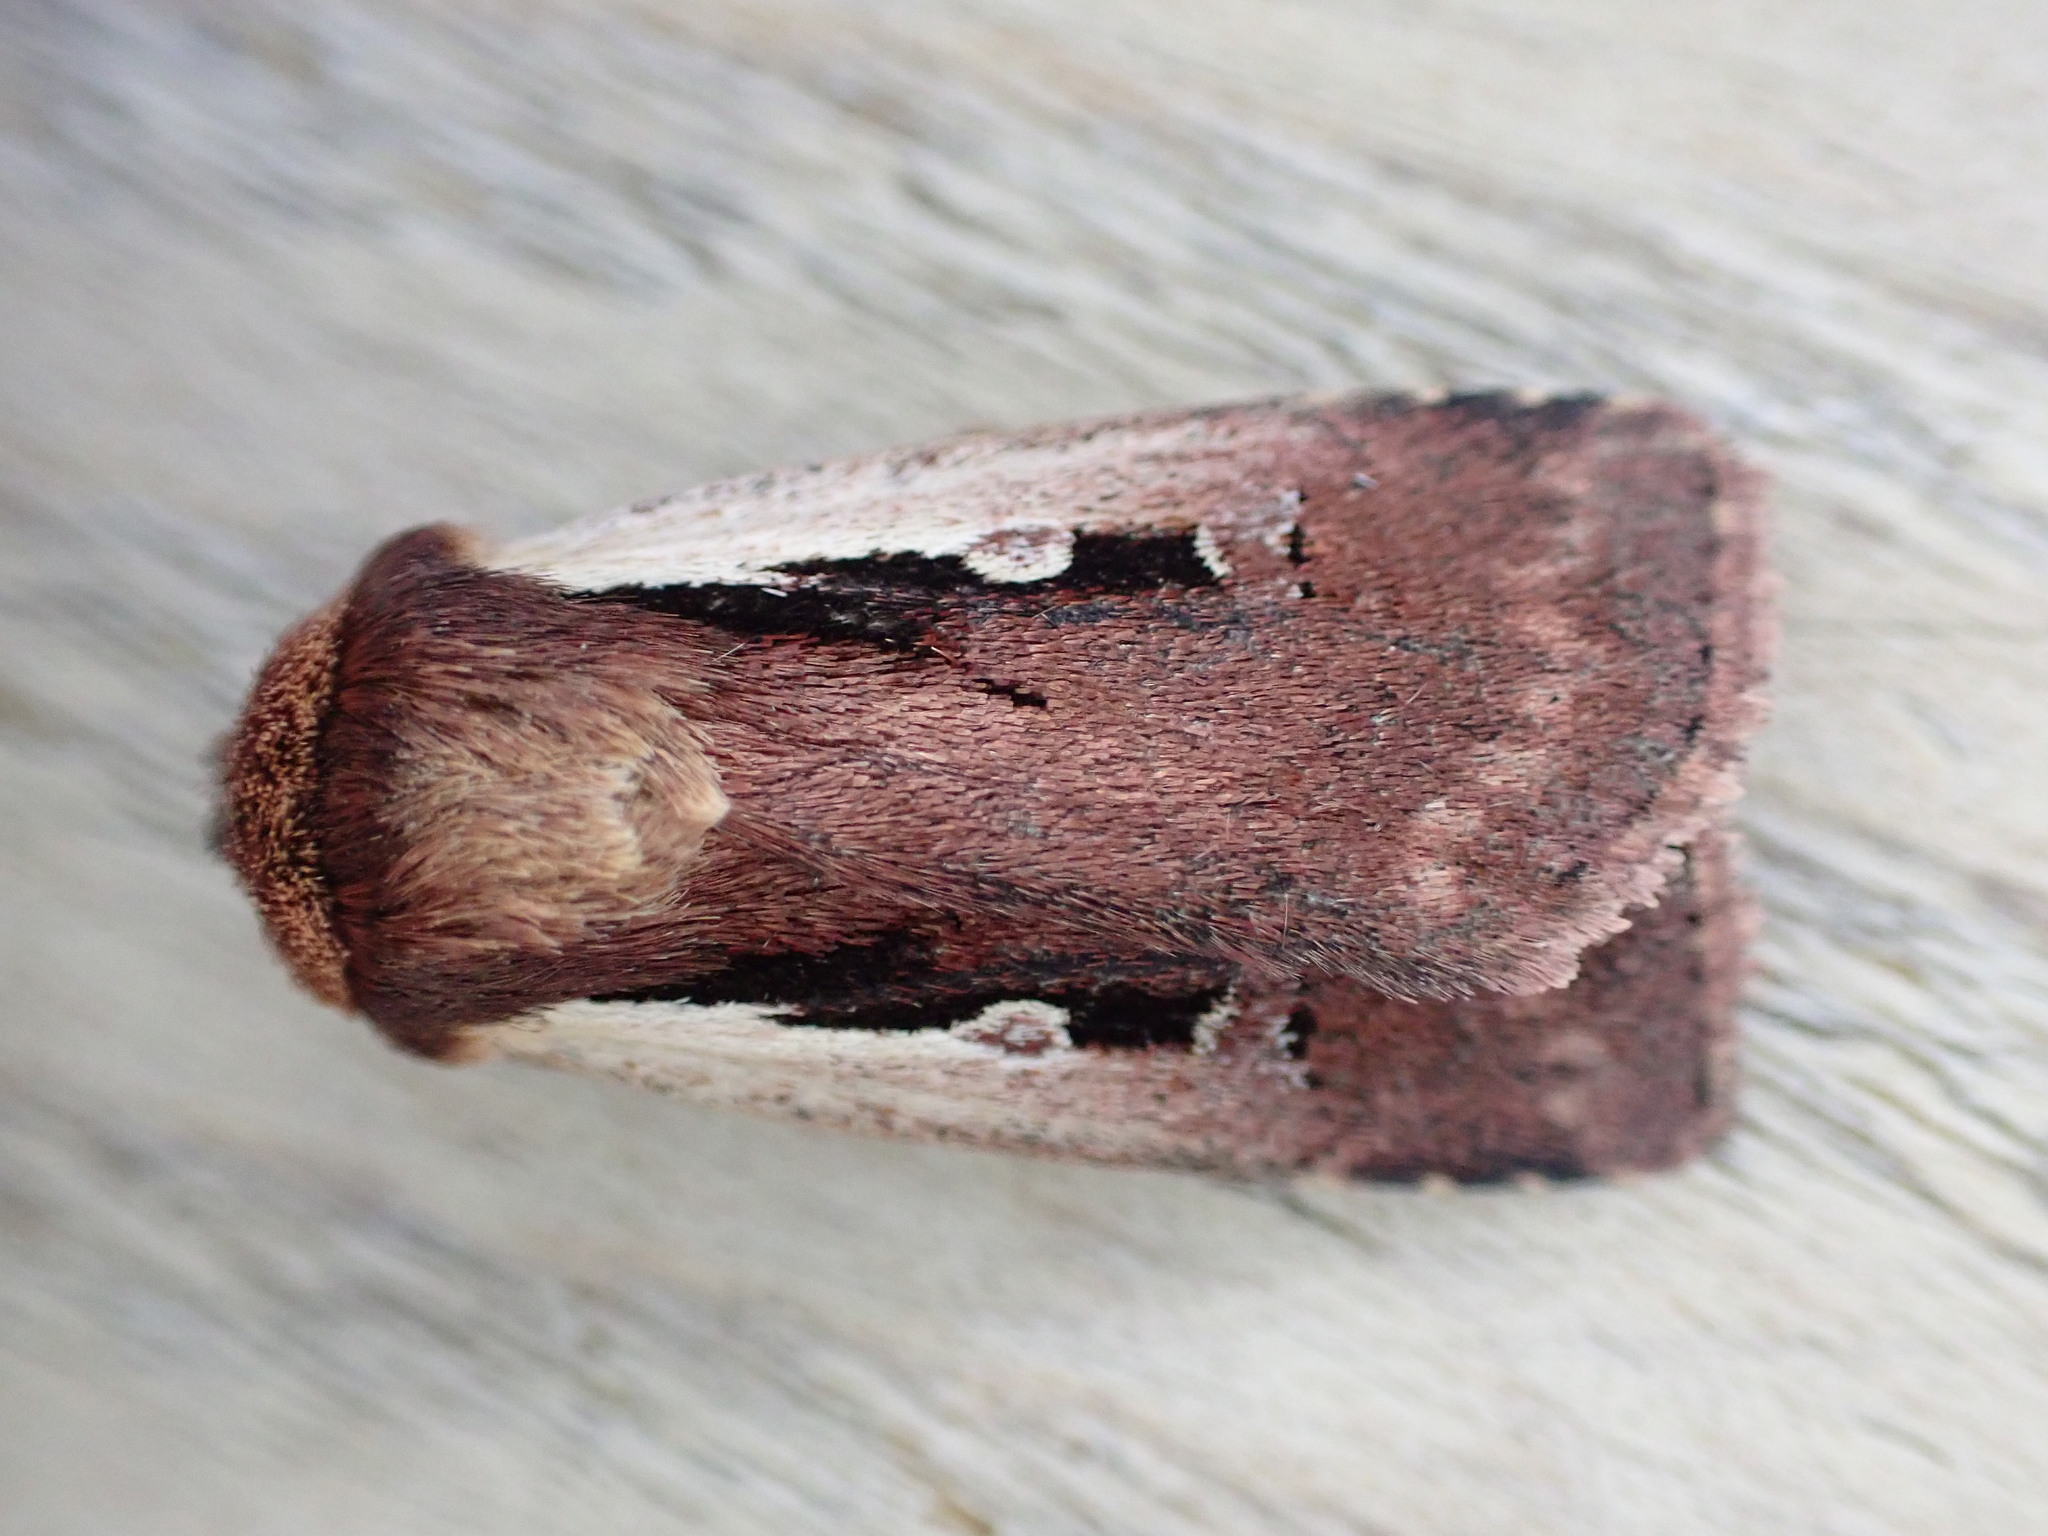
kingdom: Animalia
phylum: Arthropoda
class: Insecta
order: Lepidoptera
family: Noctuidae
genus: Ochropleura
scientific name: Ochropleura plecta
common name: Flame shoulder
